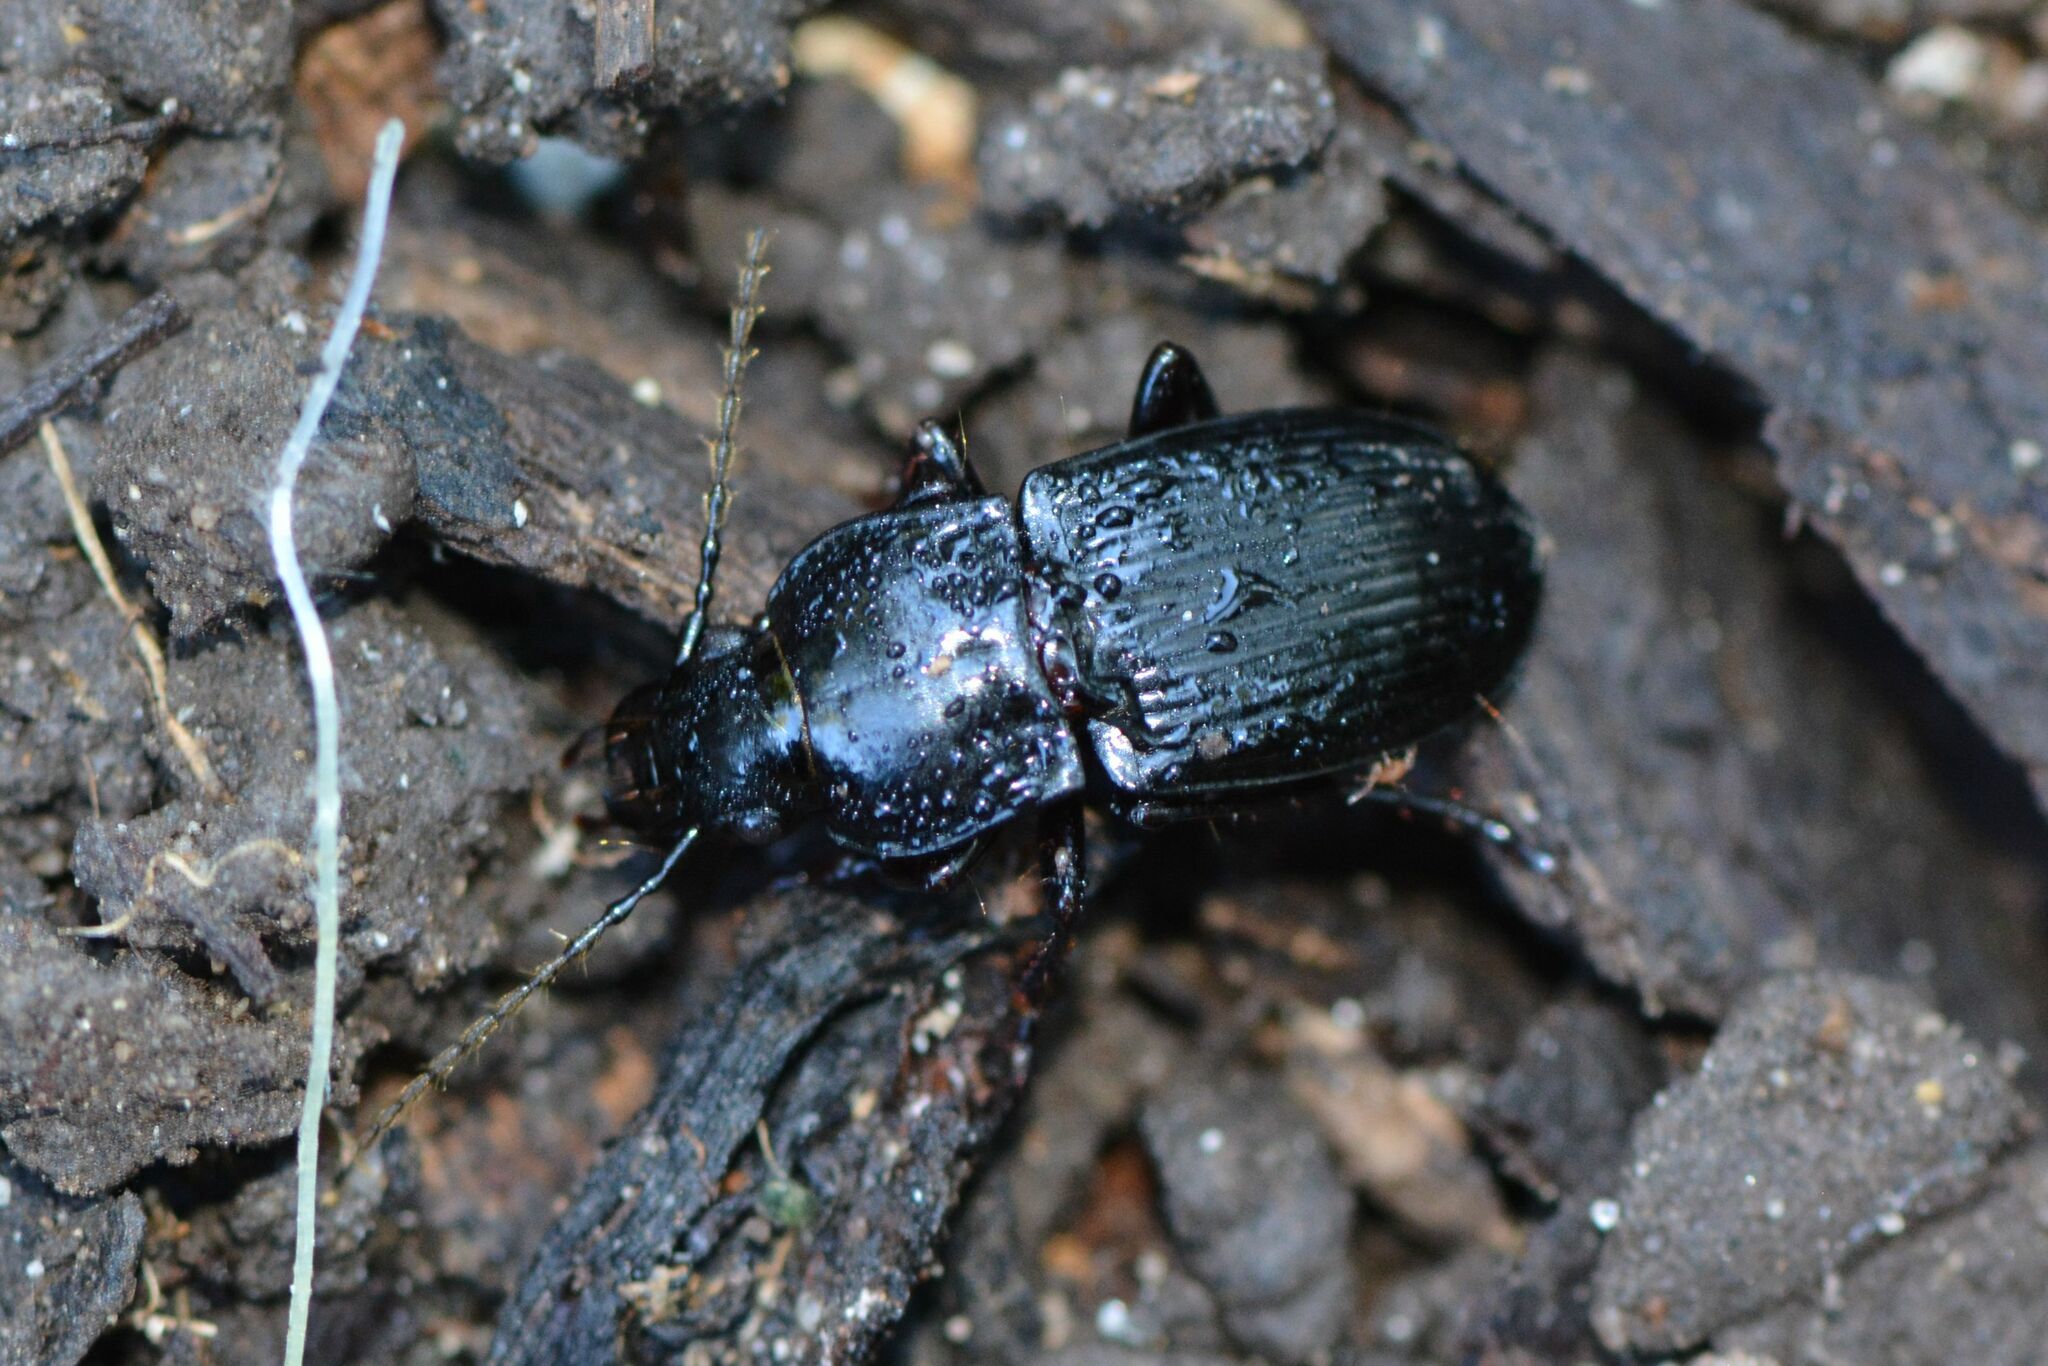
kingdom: Animalia
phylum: Arthropoda
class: Insecta
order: Coleoptera
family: Carabidae
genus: Abax
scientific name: Abax parallelepipedus
